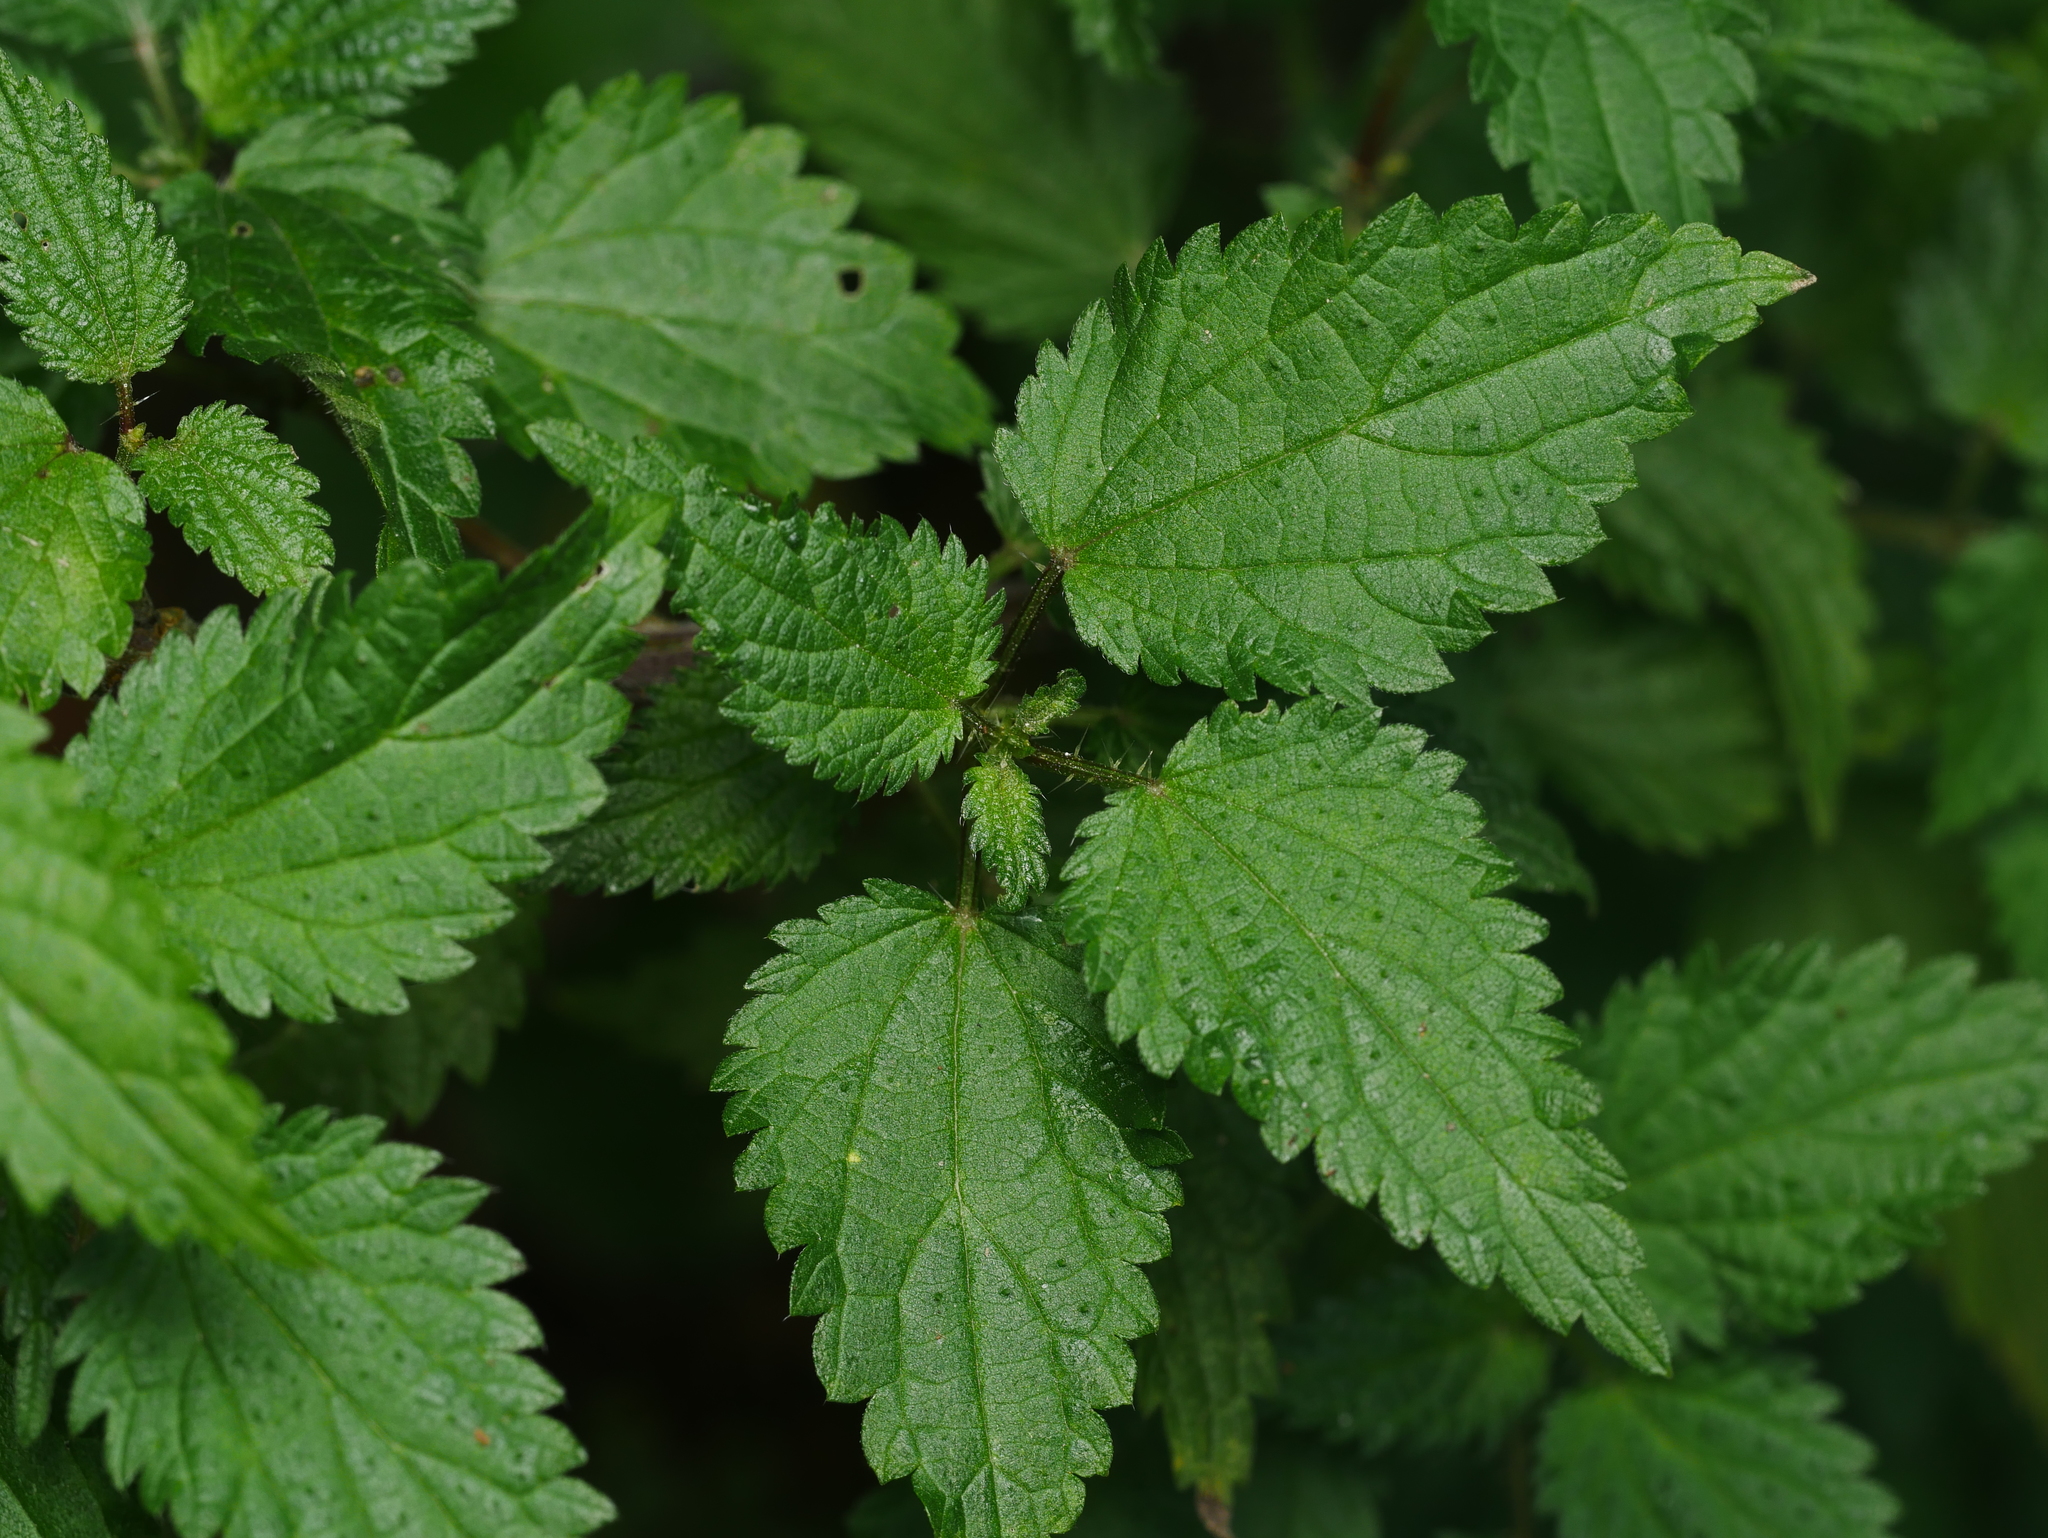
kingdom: Plantae
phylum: Tracheophyta
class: Magnoliopsida
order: Rosales
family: Urticaceae
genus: Urtica
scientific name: Urtica dioica
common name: Common nettle
